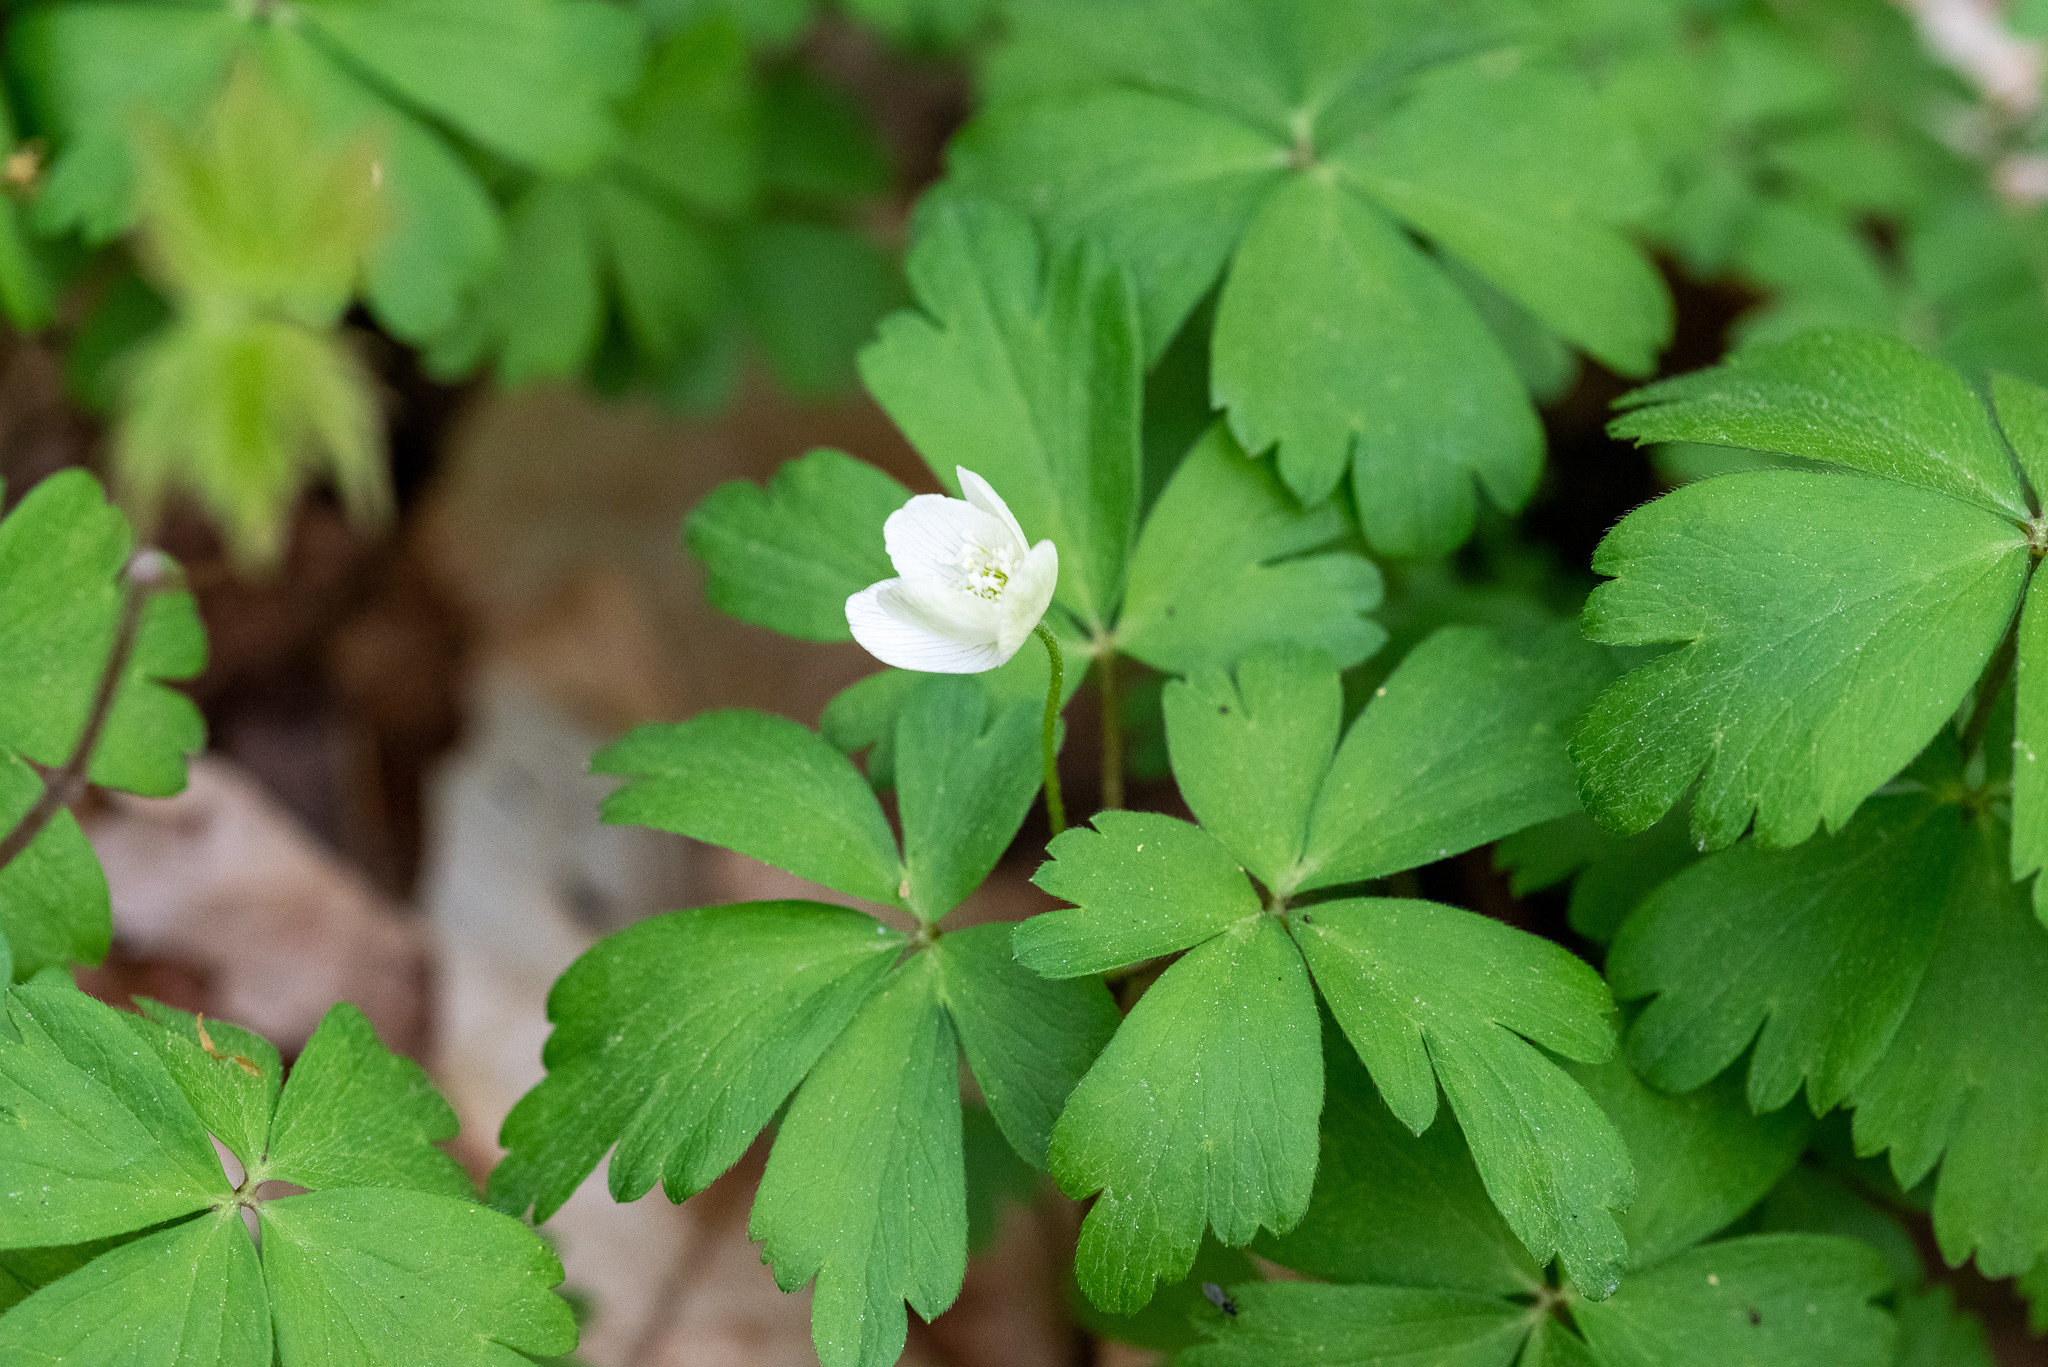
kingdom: Plantae
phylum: Tracheophyta
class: Magnoliopsida
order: Ranunculales
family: Ranunculaceae
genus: Anemone
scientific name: Anemone quinquefolia
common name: Wood anemone
